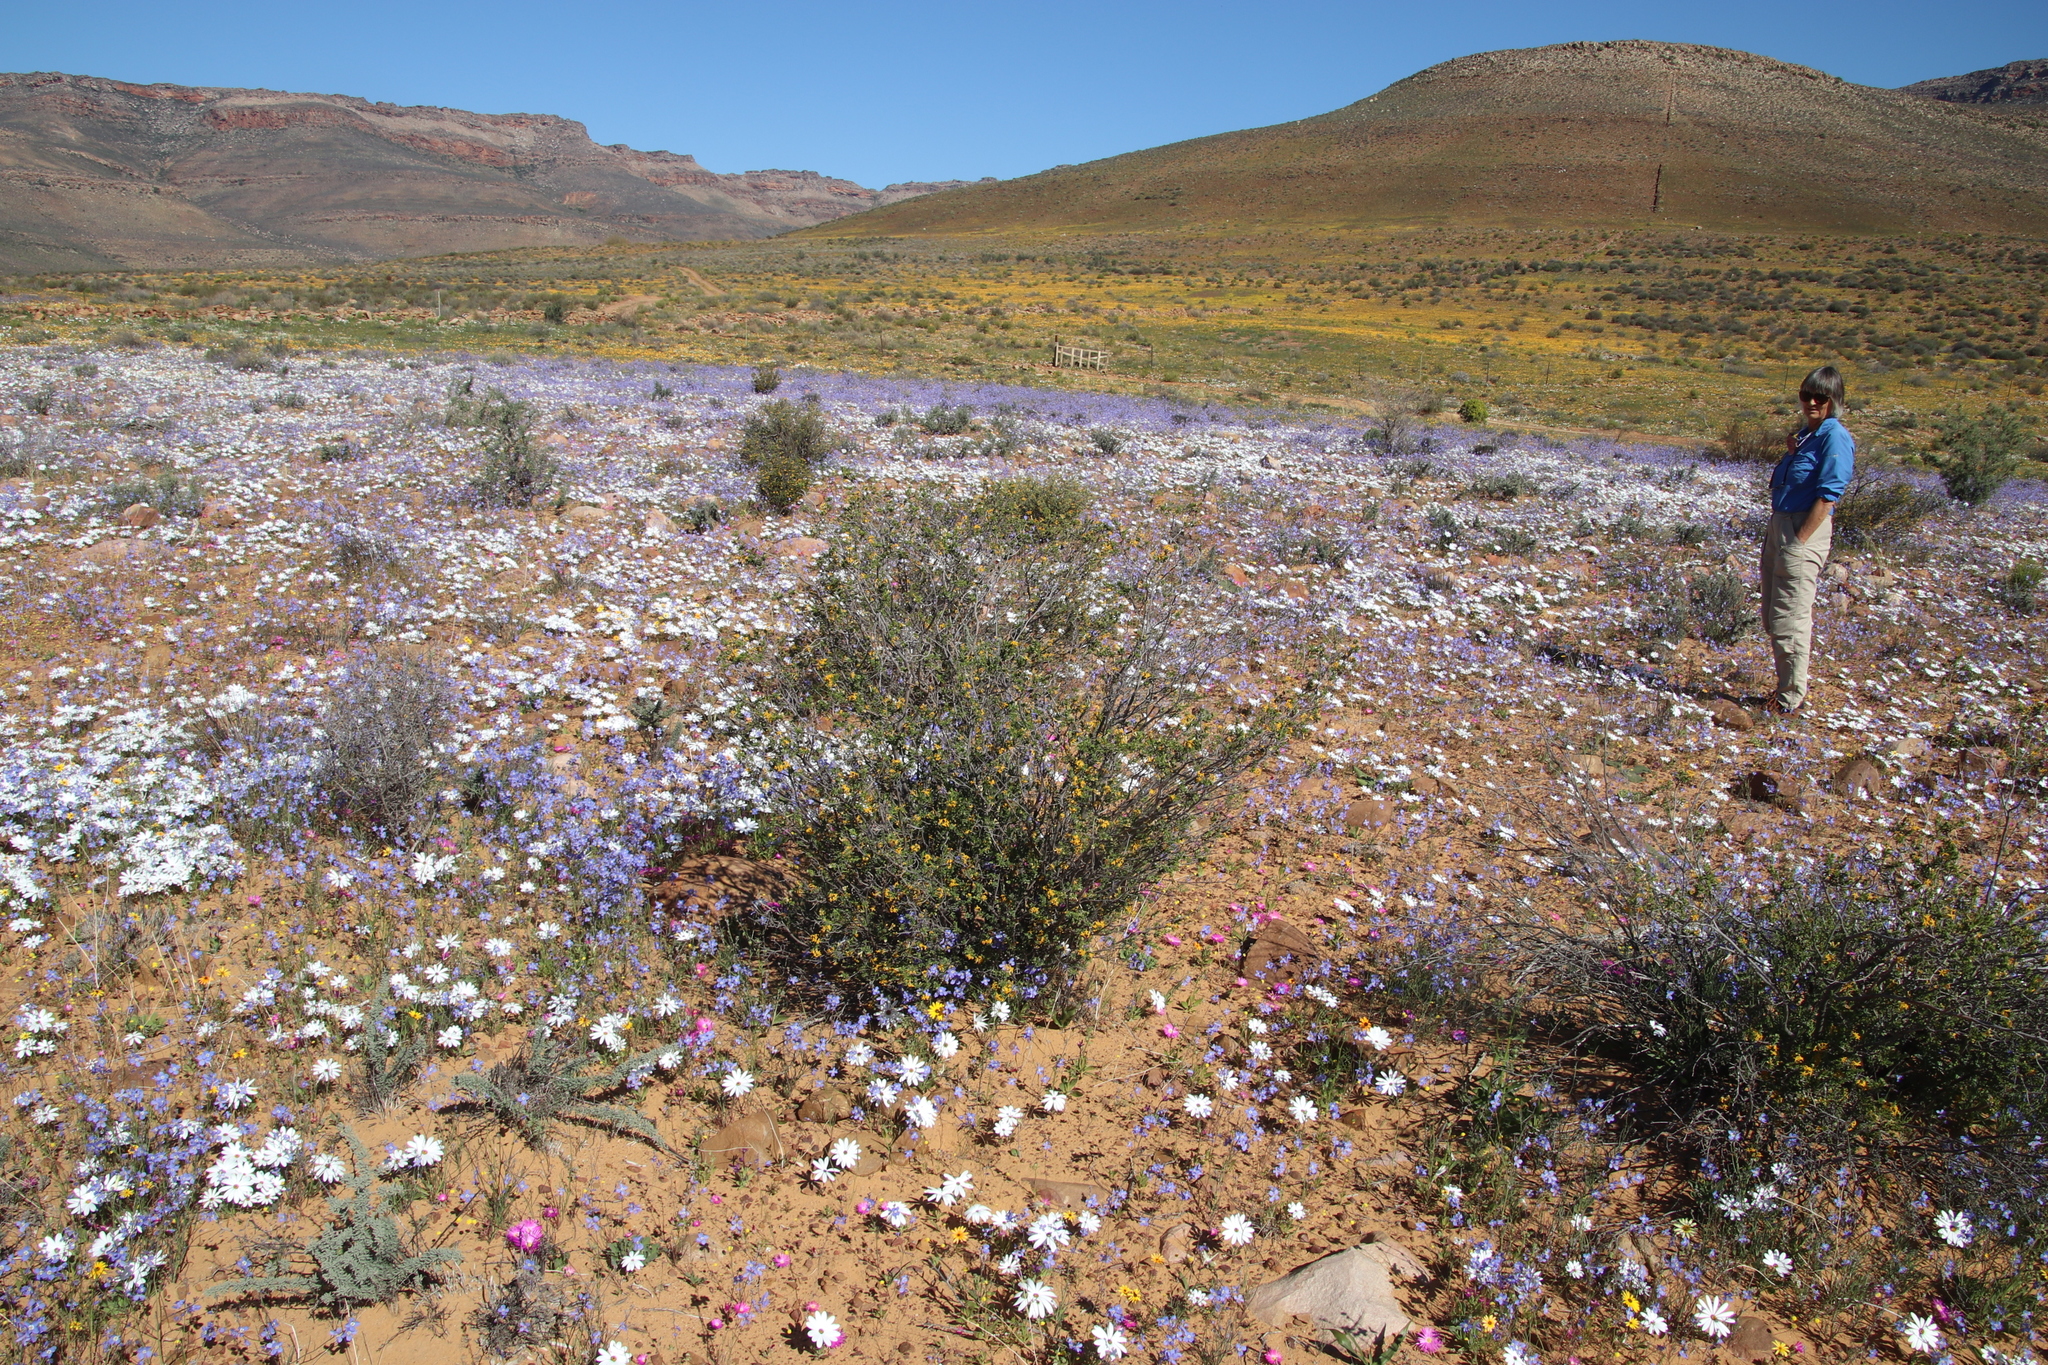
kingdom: Plantae
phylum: Tracheophyta
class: Magnoliopsida
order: Malvales
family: Thymelaeaceae
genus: Gnidia
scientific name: Gnidia deserticola
